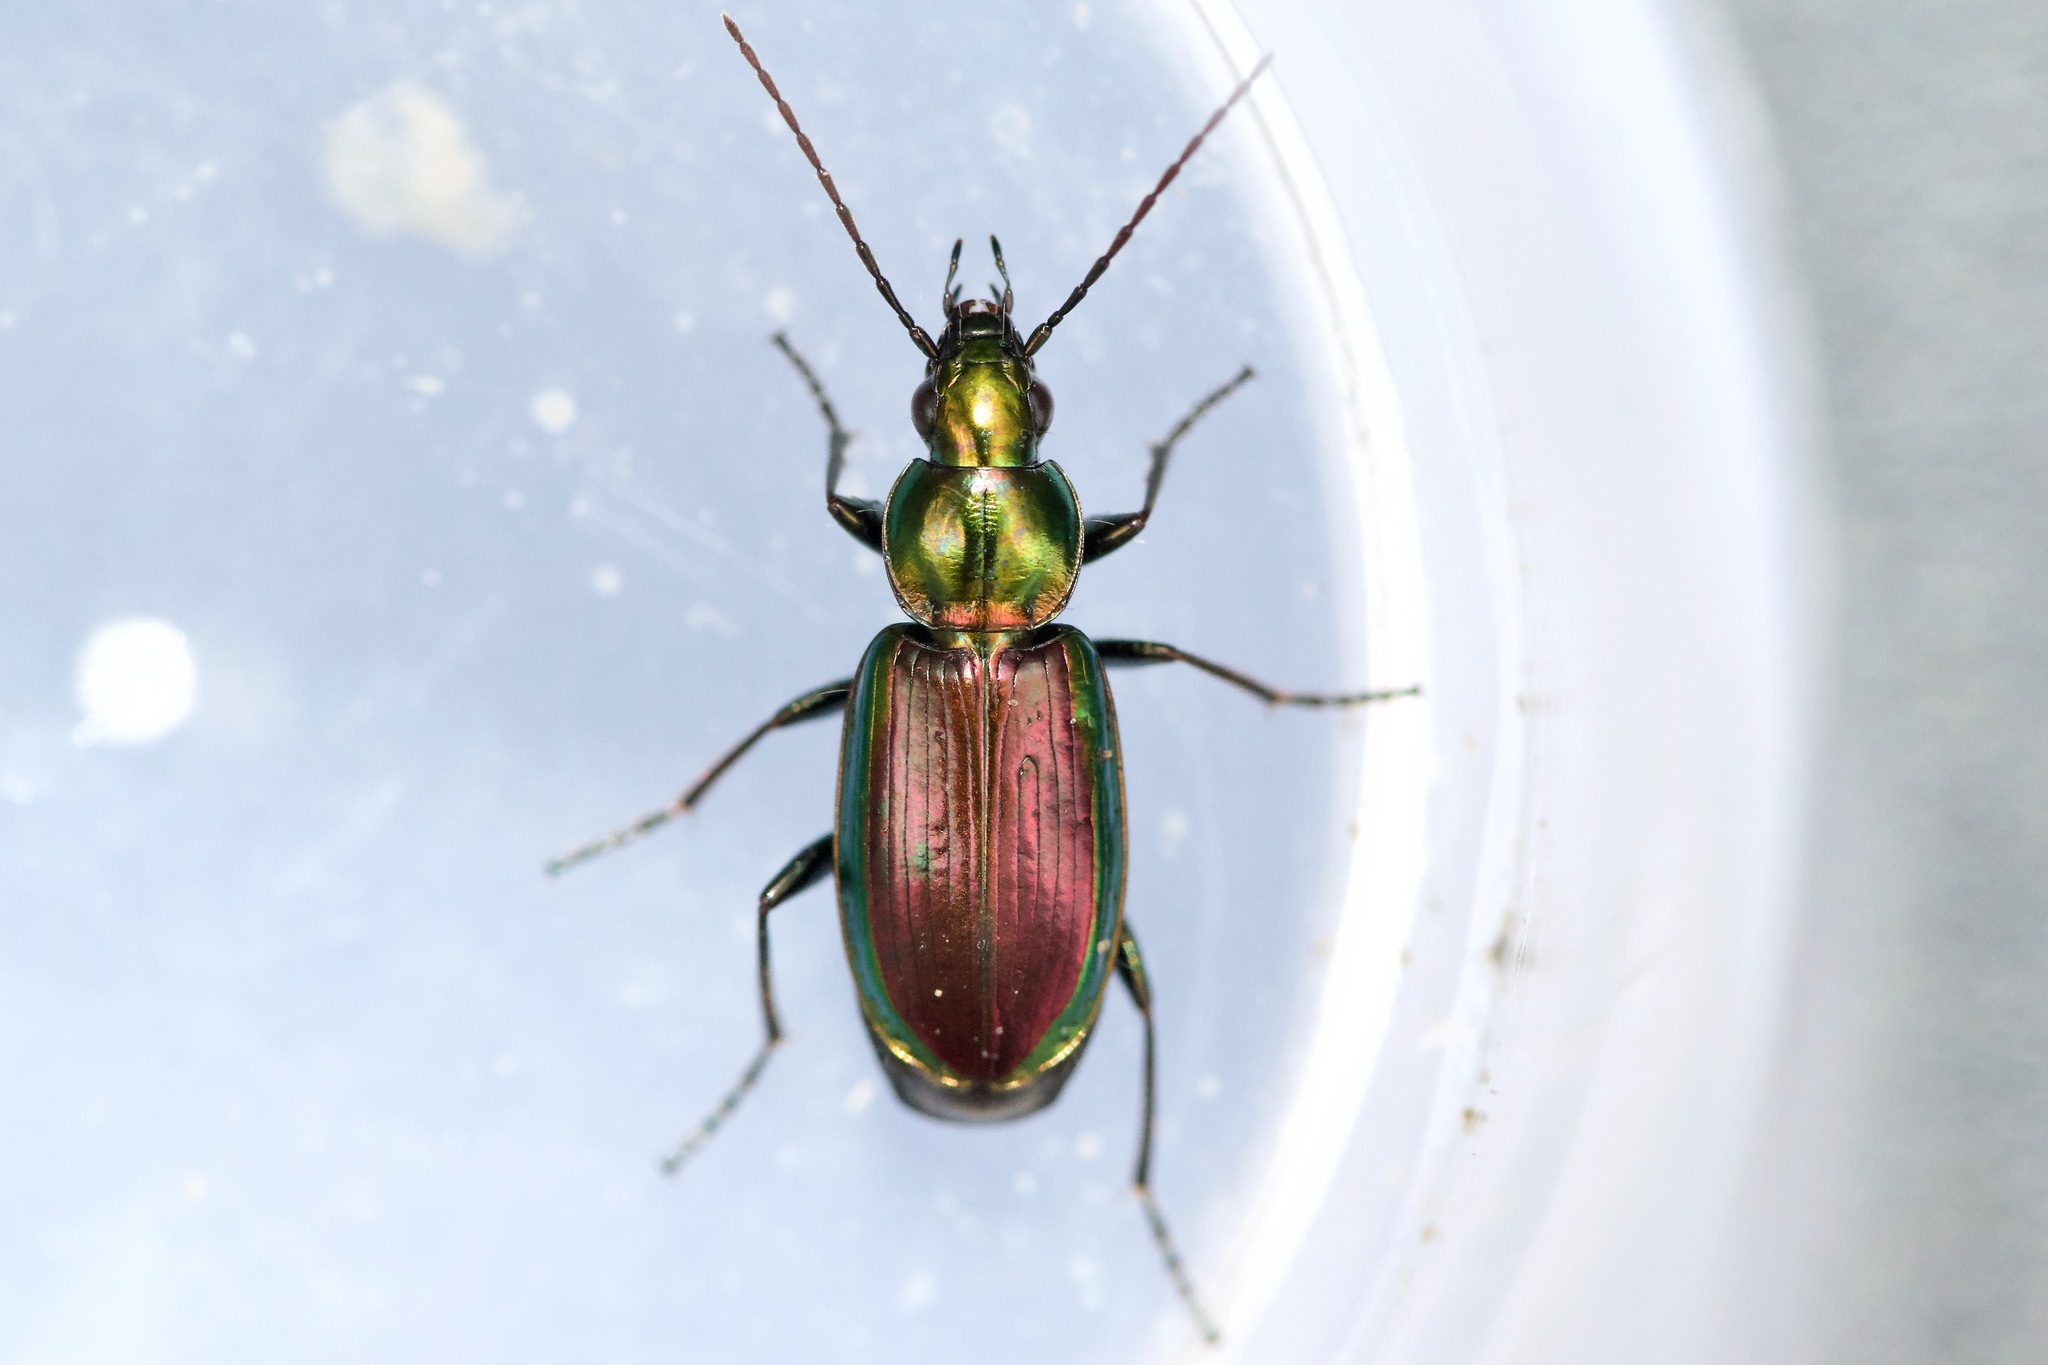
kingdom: Animalia
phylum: Arthropoda
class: Insecta
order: Coleoptera
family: Carabidae
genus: Agonum
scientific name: Agonum cupripenne
